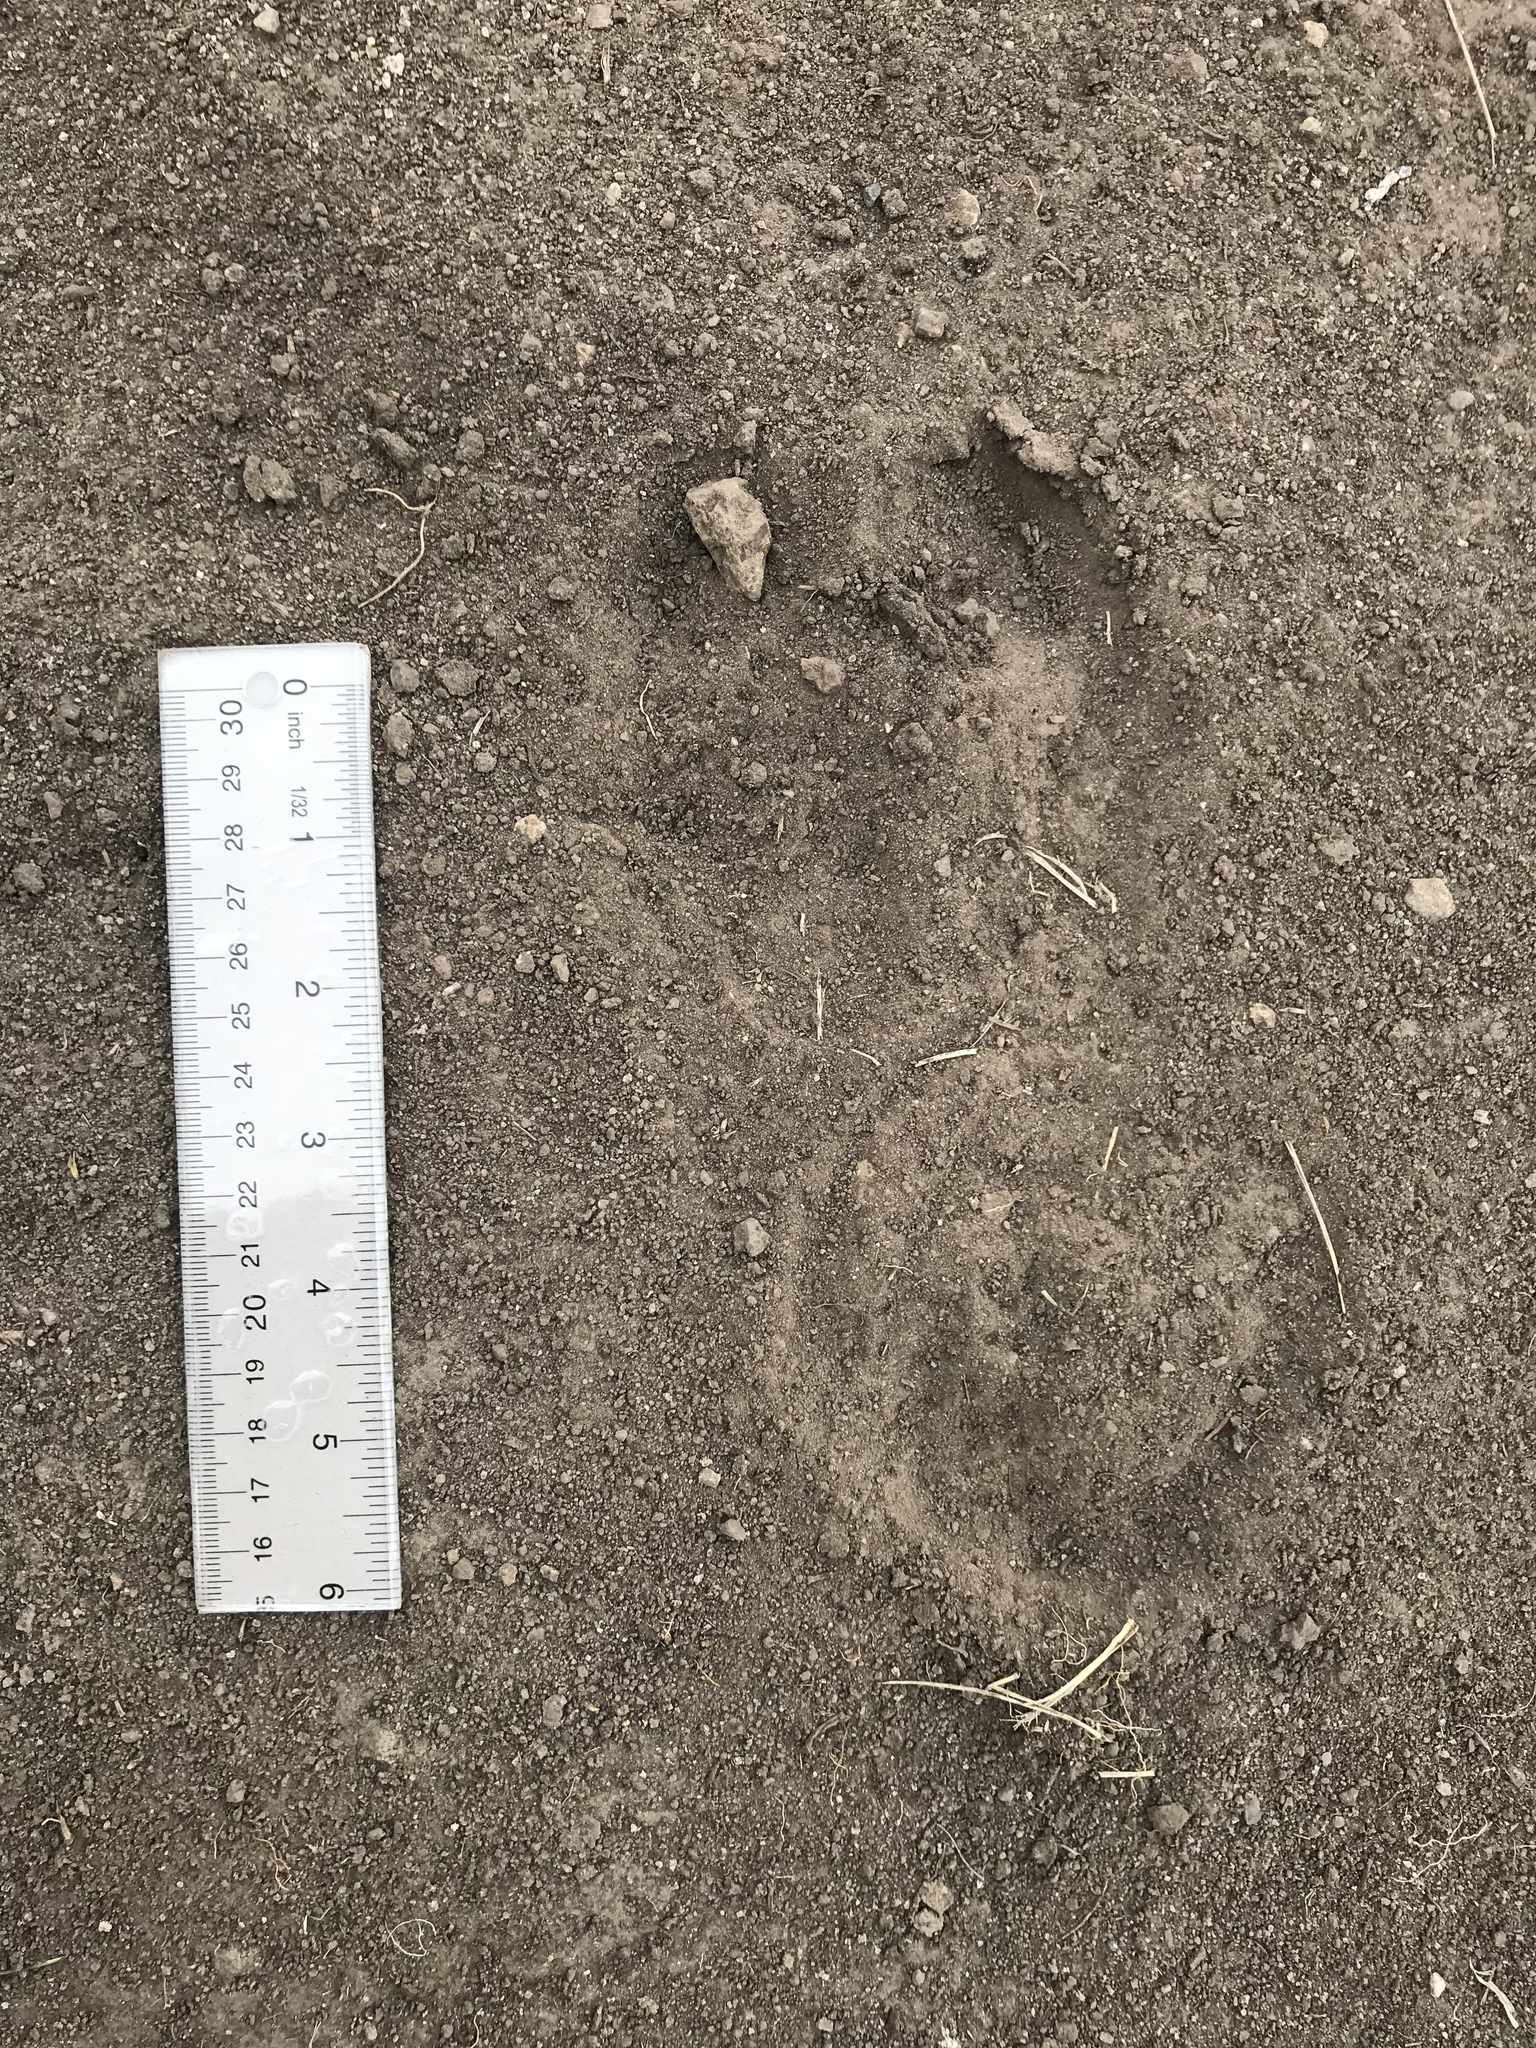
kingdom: Animalia
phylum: Chordata
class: Mammalia
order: Artiodactyla
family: Cervidae
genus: Cervus
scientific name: Cervus elaphus
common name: Red deer
